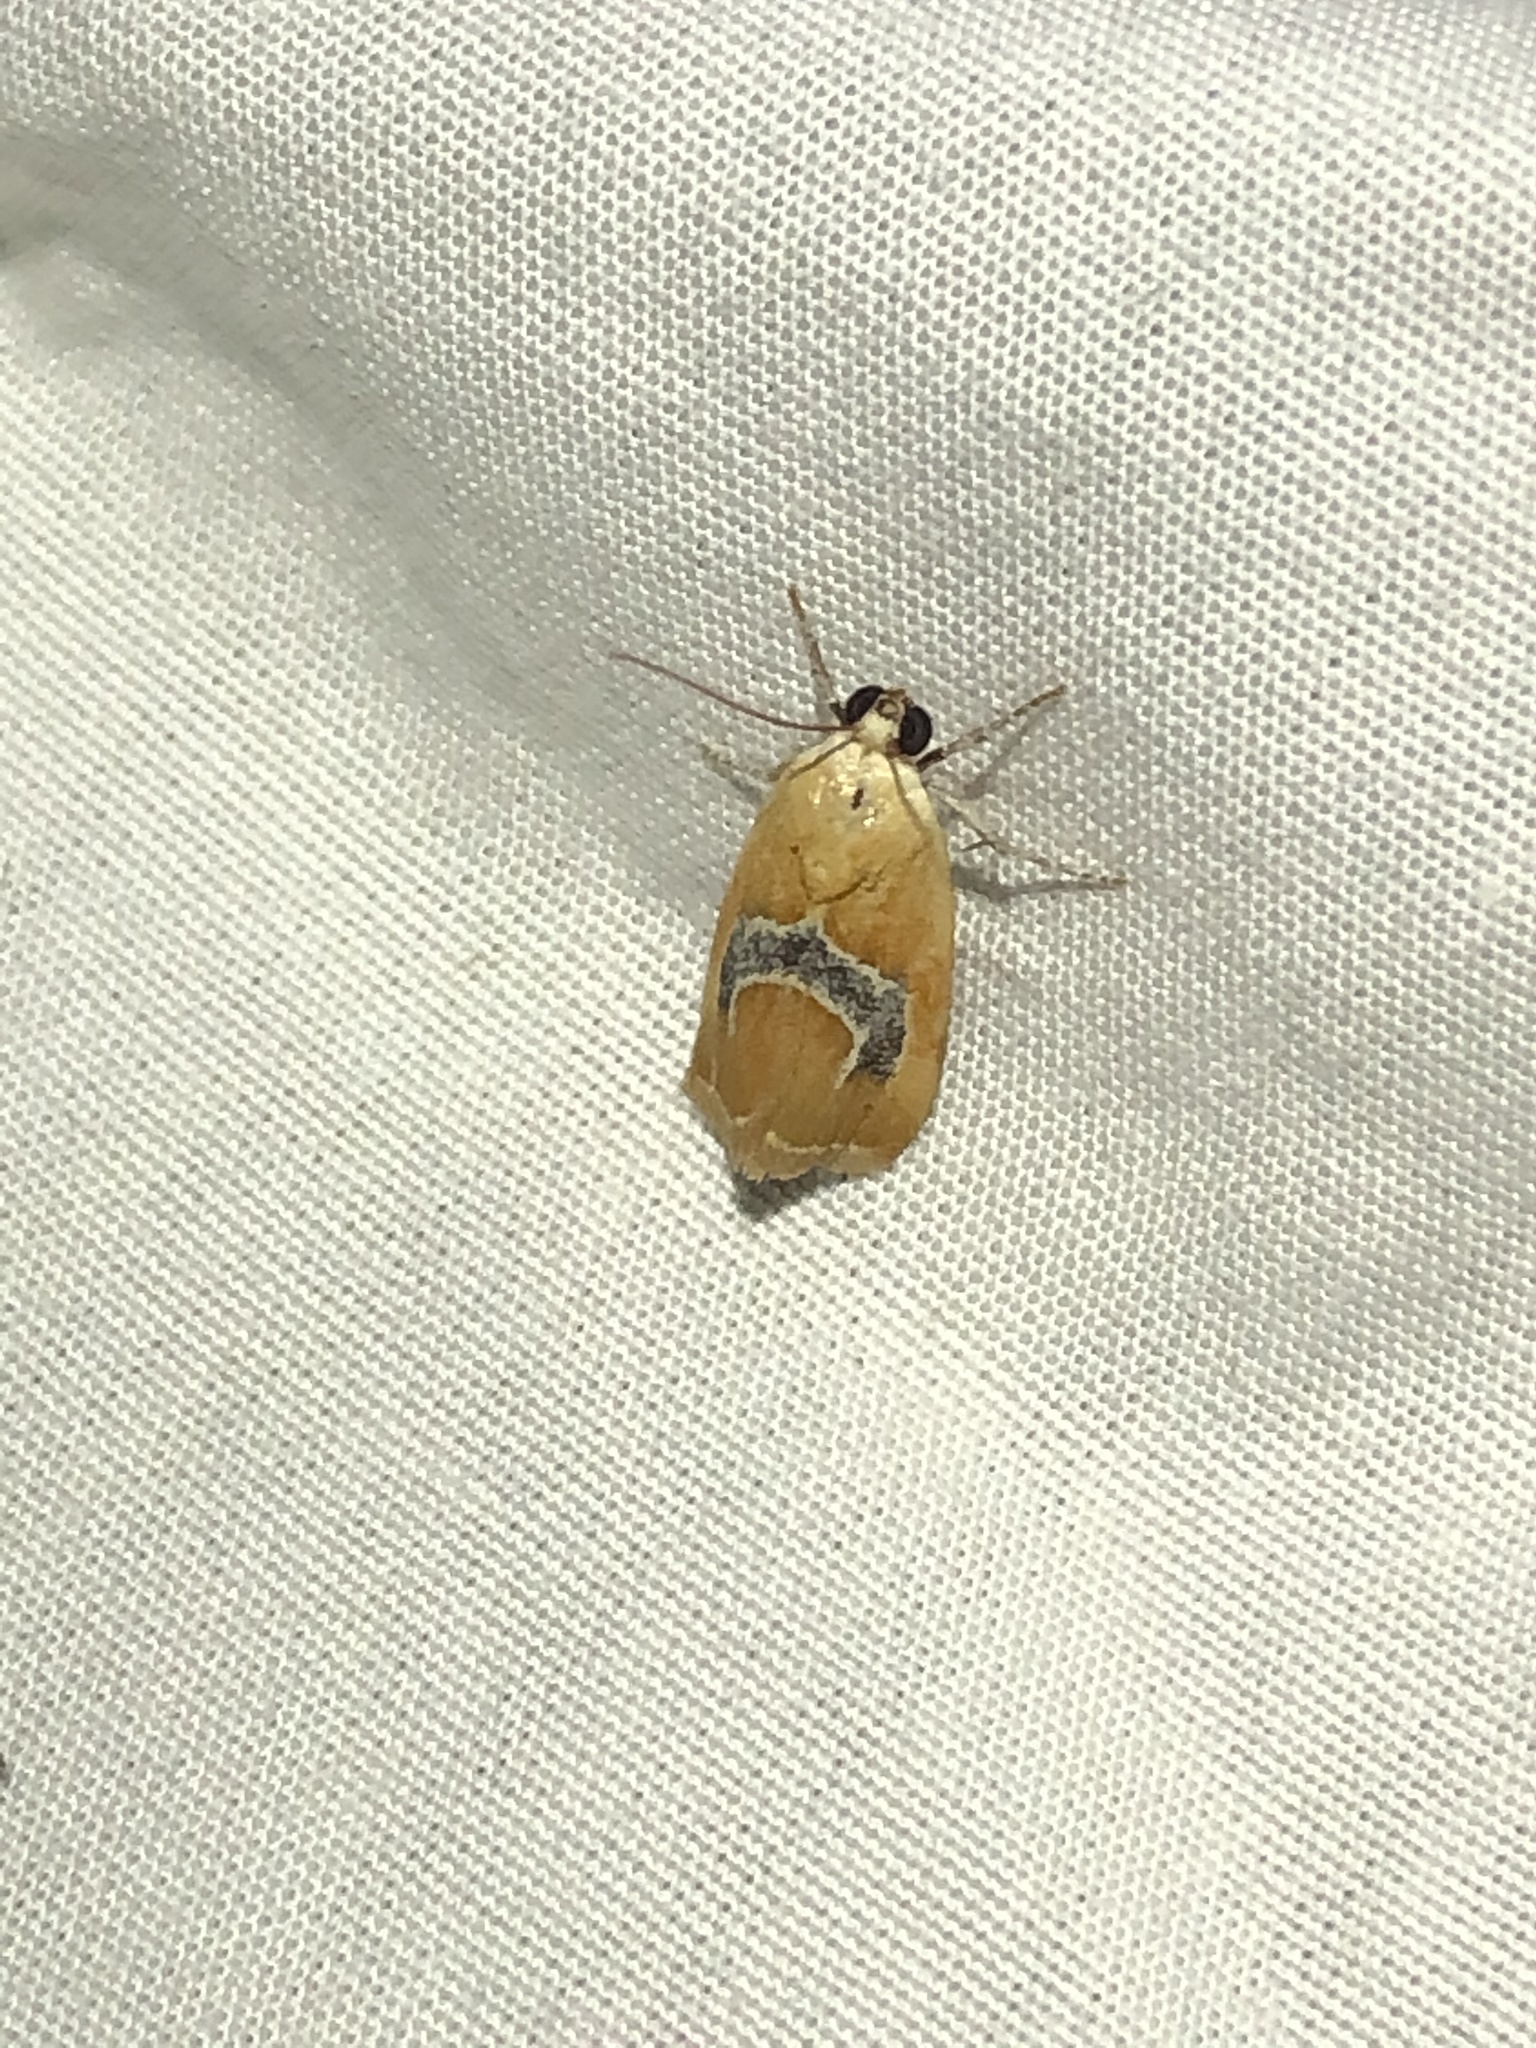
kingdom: Animalia
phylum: Arthropoda
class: Insecta
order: Lepidoptera
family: Noctuidae
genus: Ponometia
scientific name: Ponometia venustula
